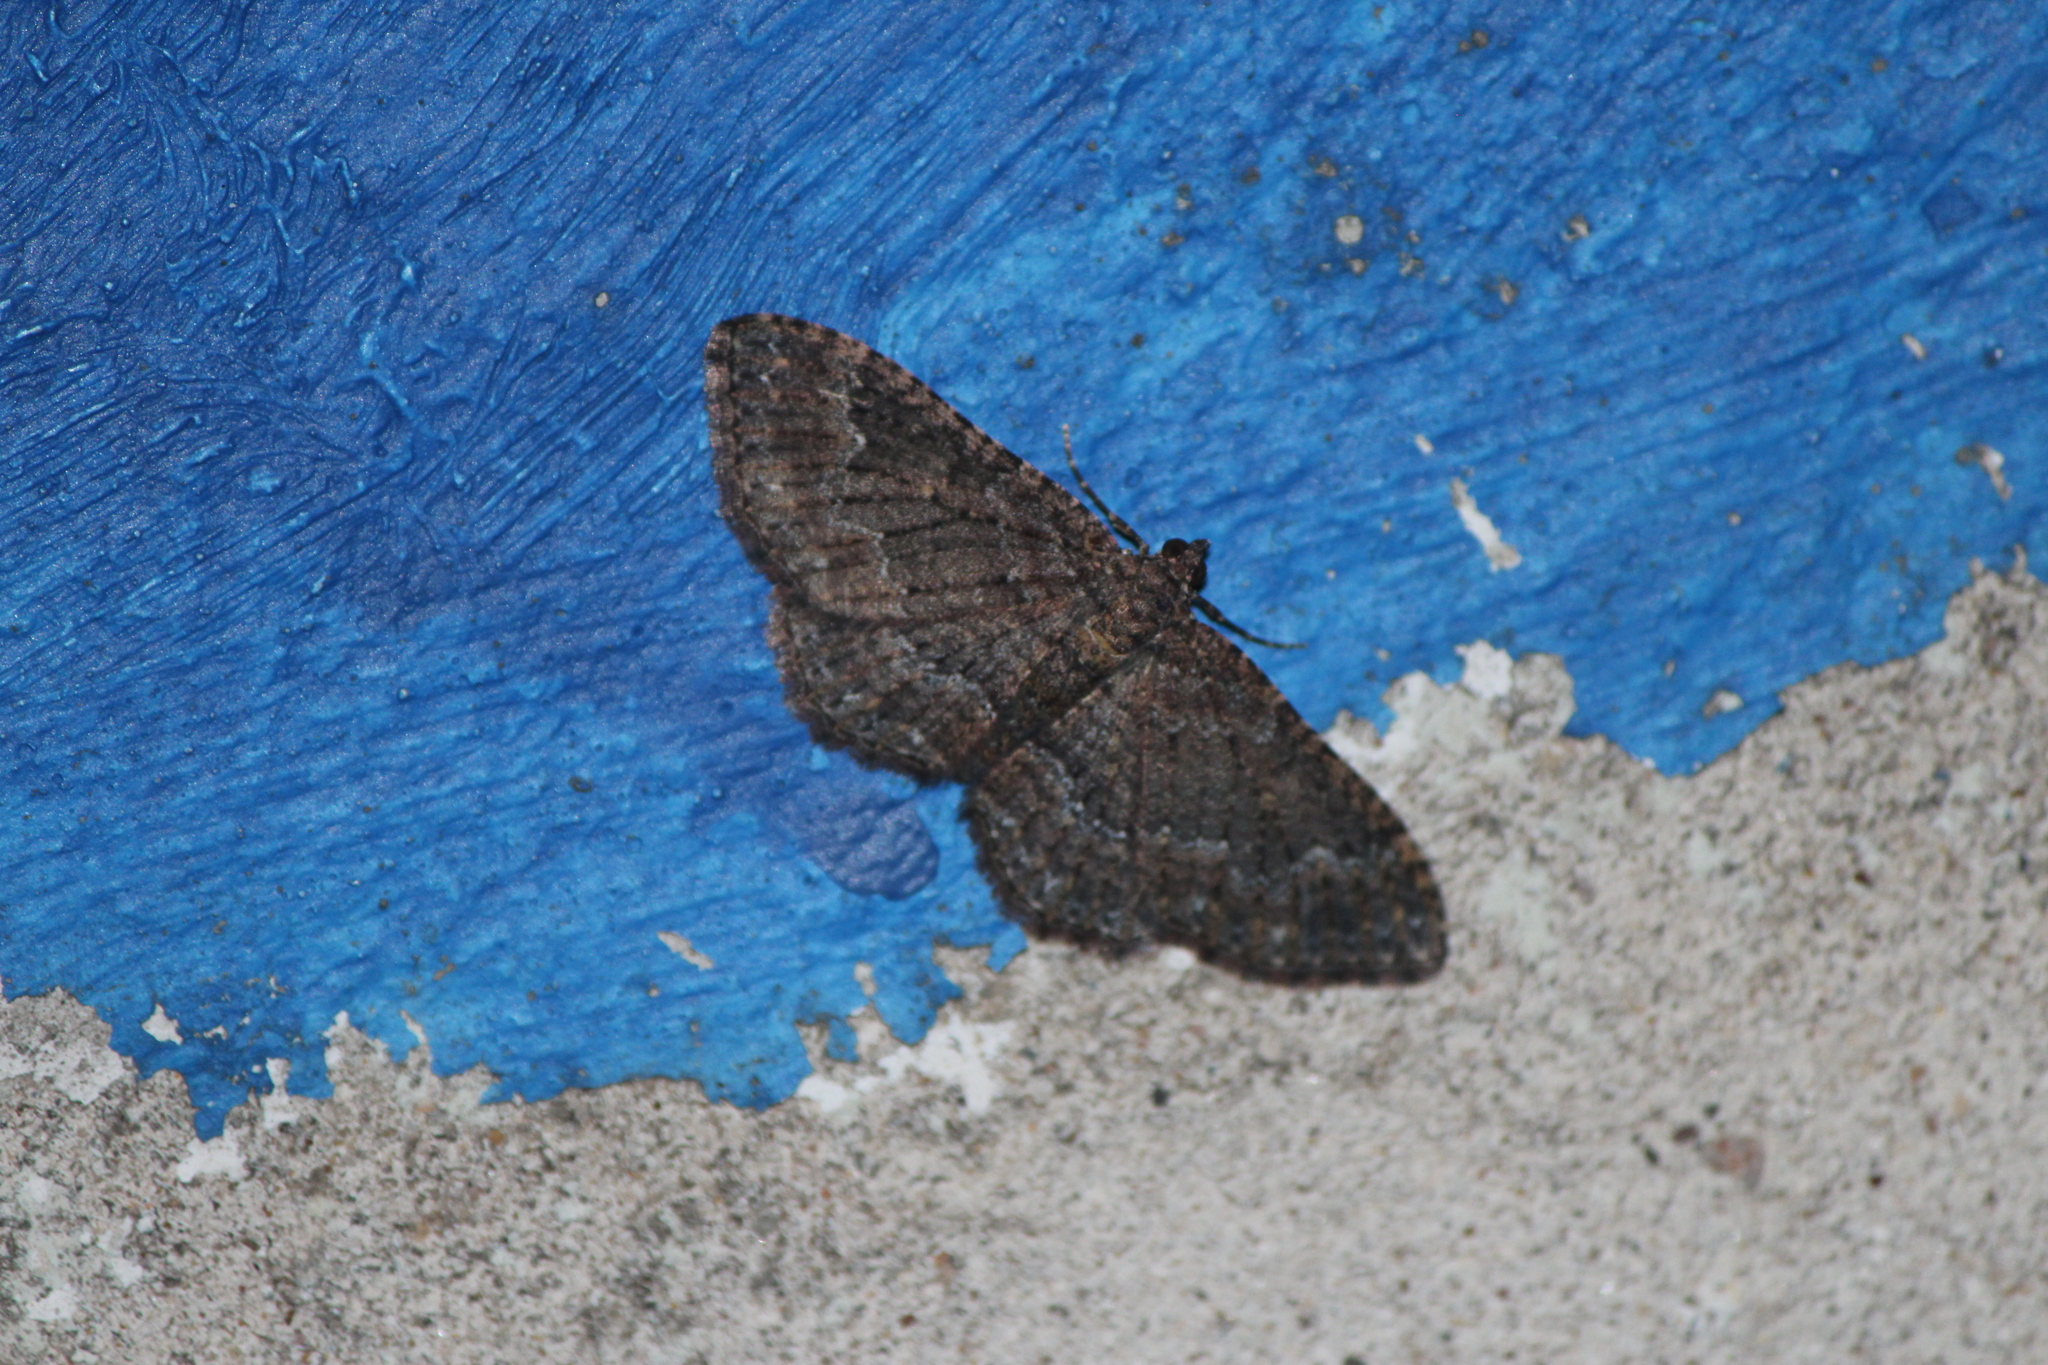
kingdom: Animalia
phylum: Arthropoda
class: Insecta
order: Lepidoptera
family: Geometridae
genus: Disclisioprocta
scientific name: Disclisioprocta stellata
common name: Somber carpet
